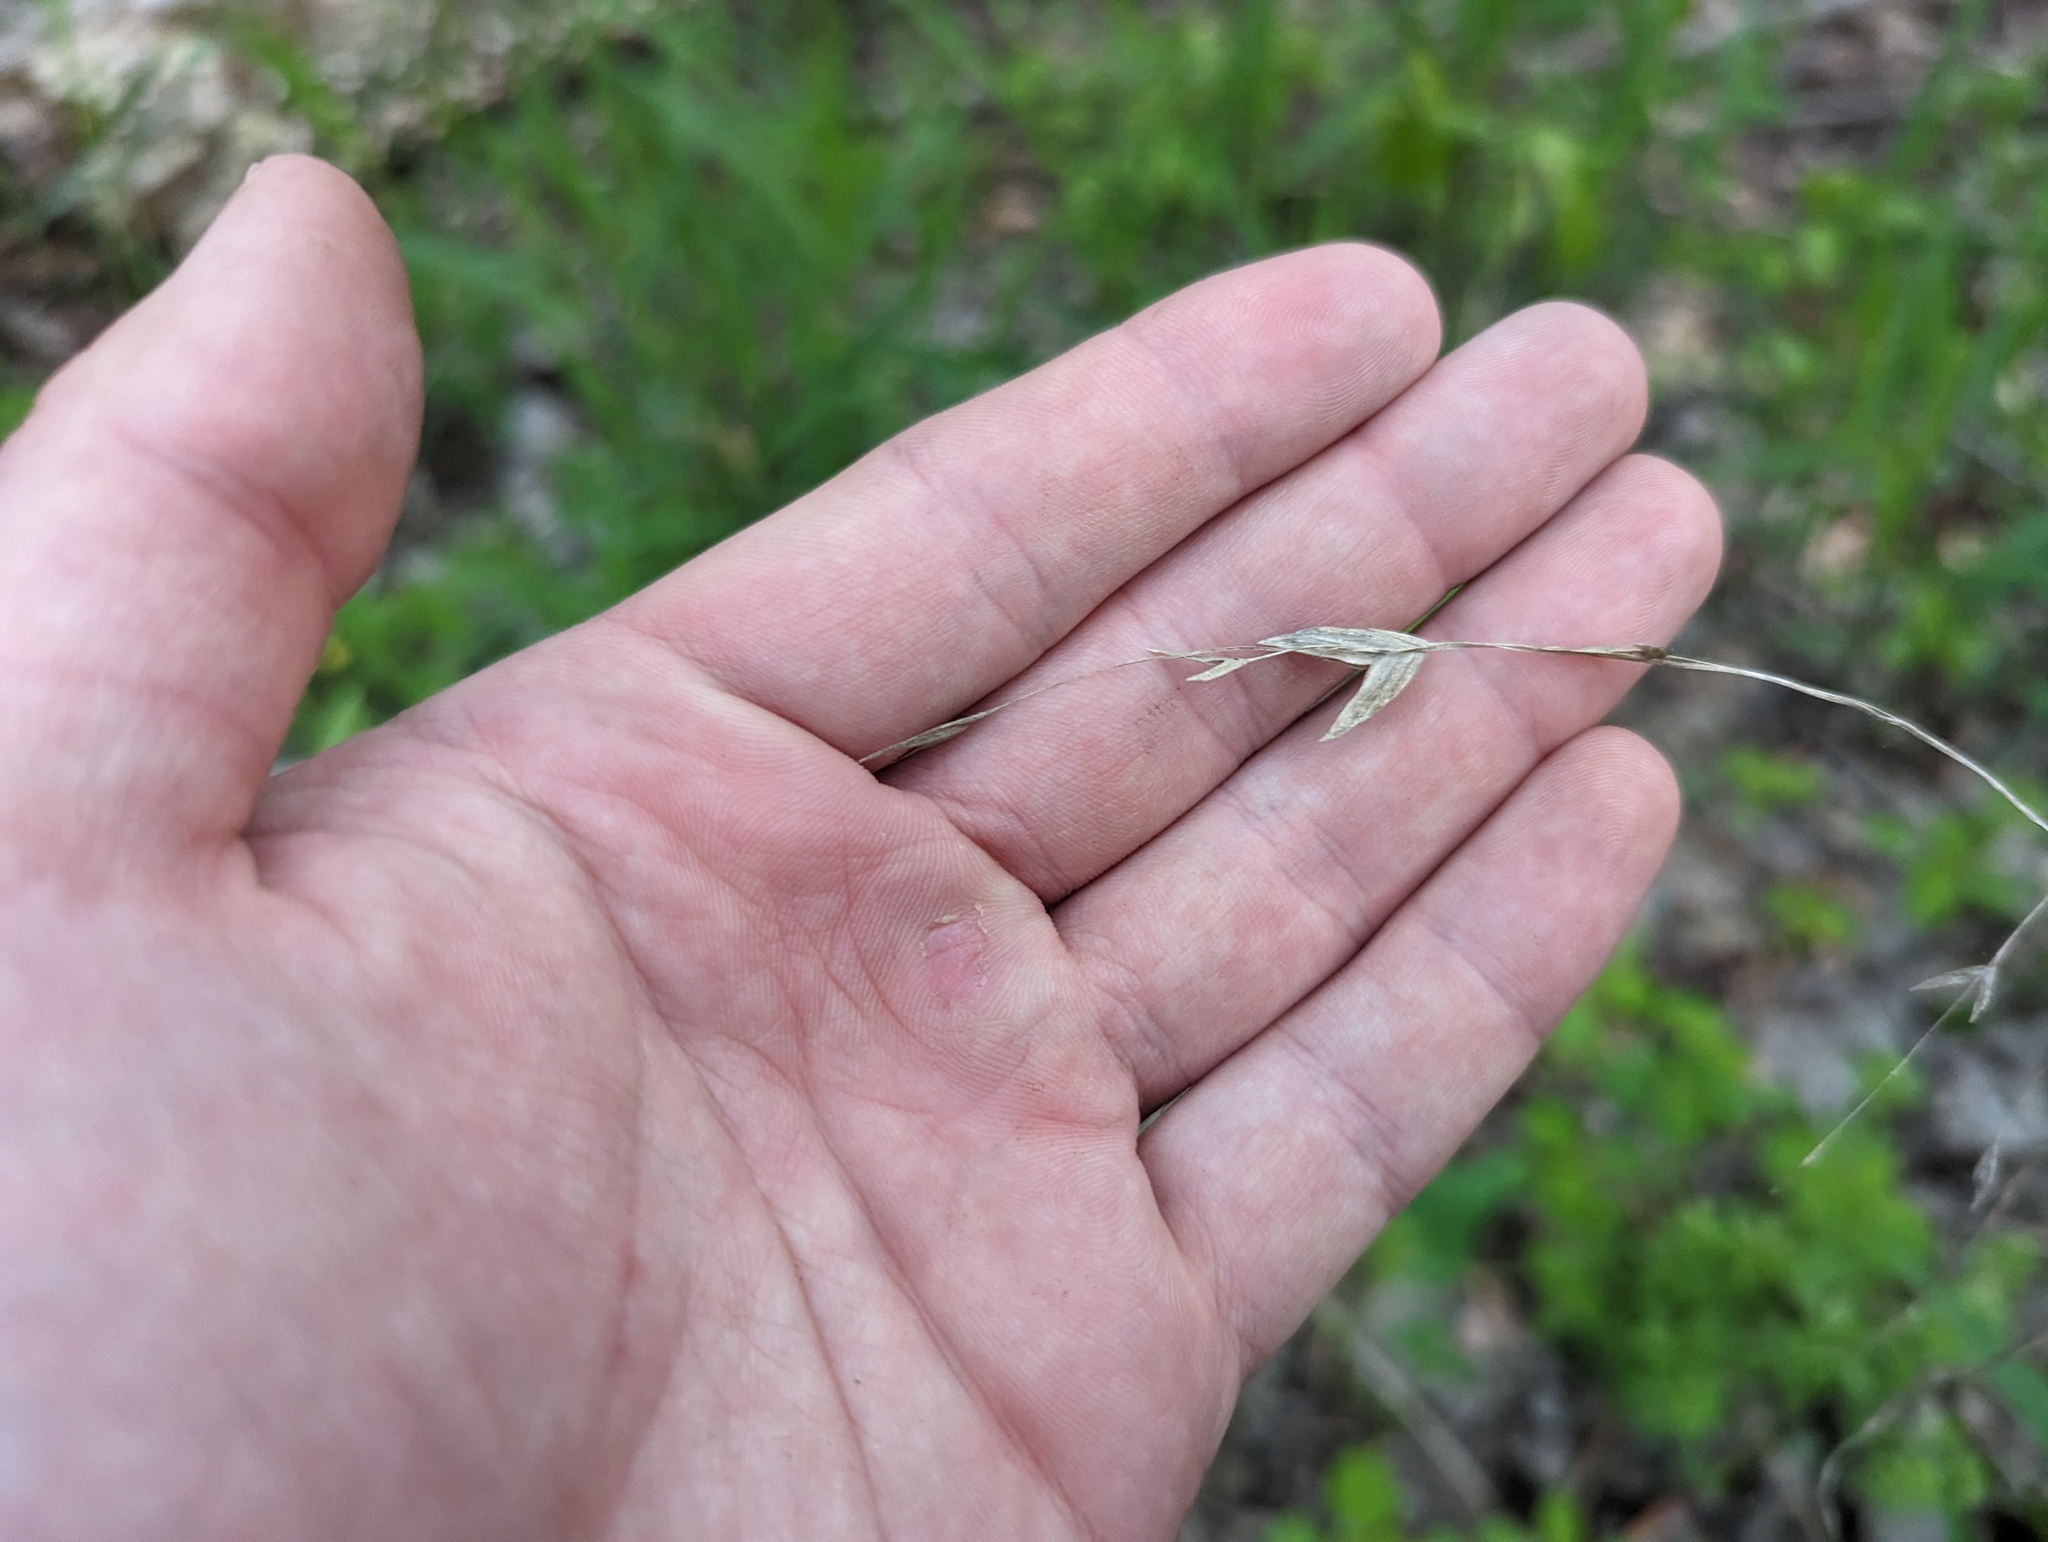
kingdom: Plantae
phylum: Tracheophyta
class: Liliopsida
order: Poales
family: Poaceae
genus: Chasmanthium
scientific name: Chasmanthium latifolium
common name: Broad-leaved chasmanthium
